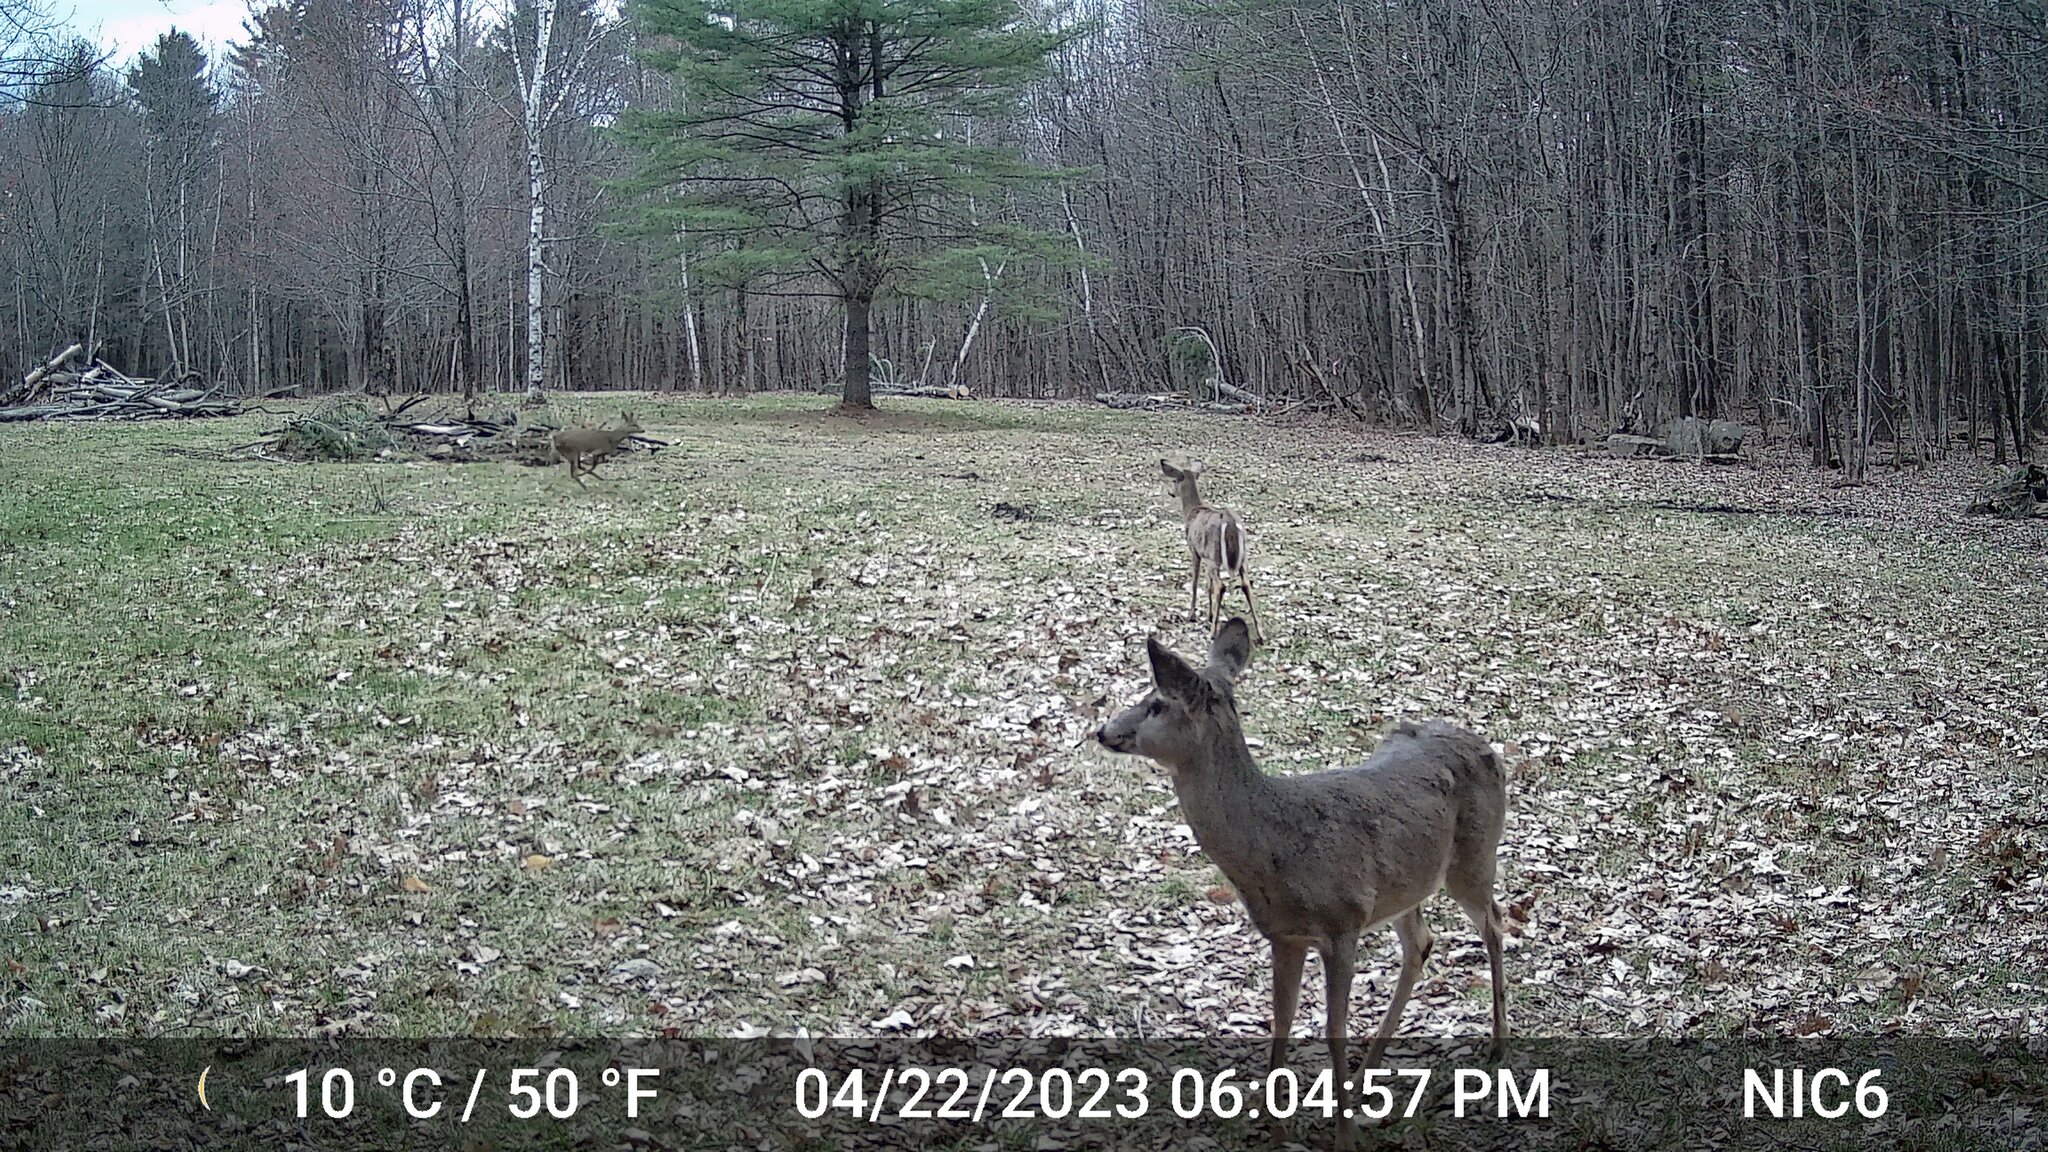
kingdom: Animalia
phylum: Chordata
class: Mammalia
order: Artiodactyla
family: Cervidae
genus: Odocoileus
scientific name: Odocoileus virginianus
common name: White-tailed deer
